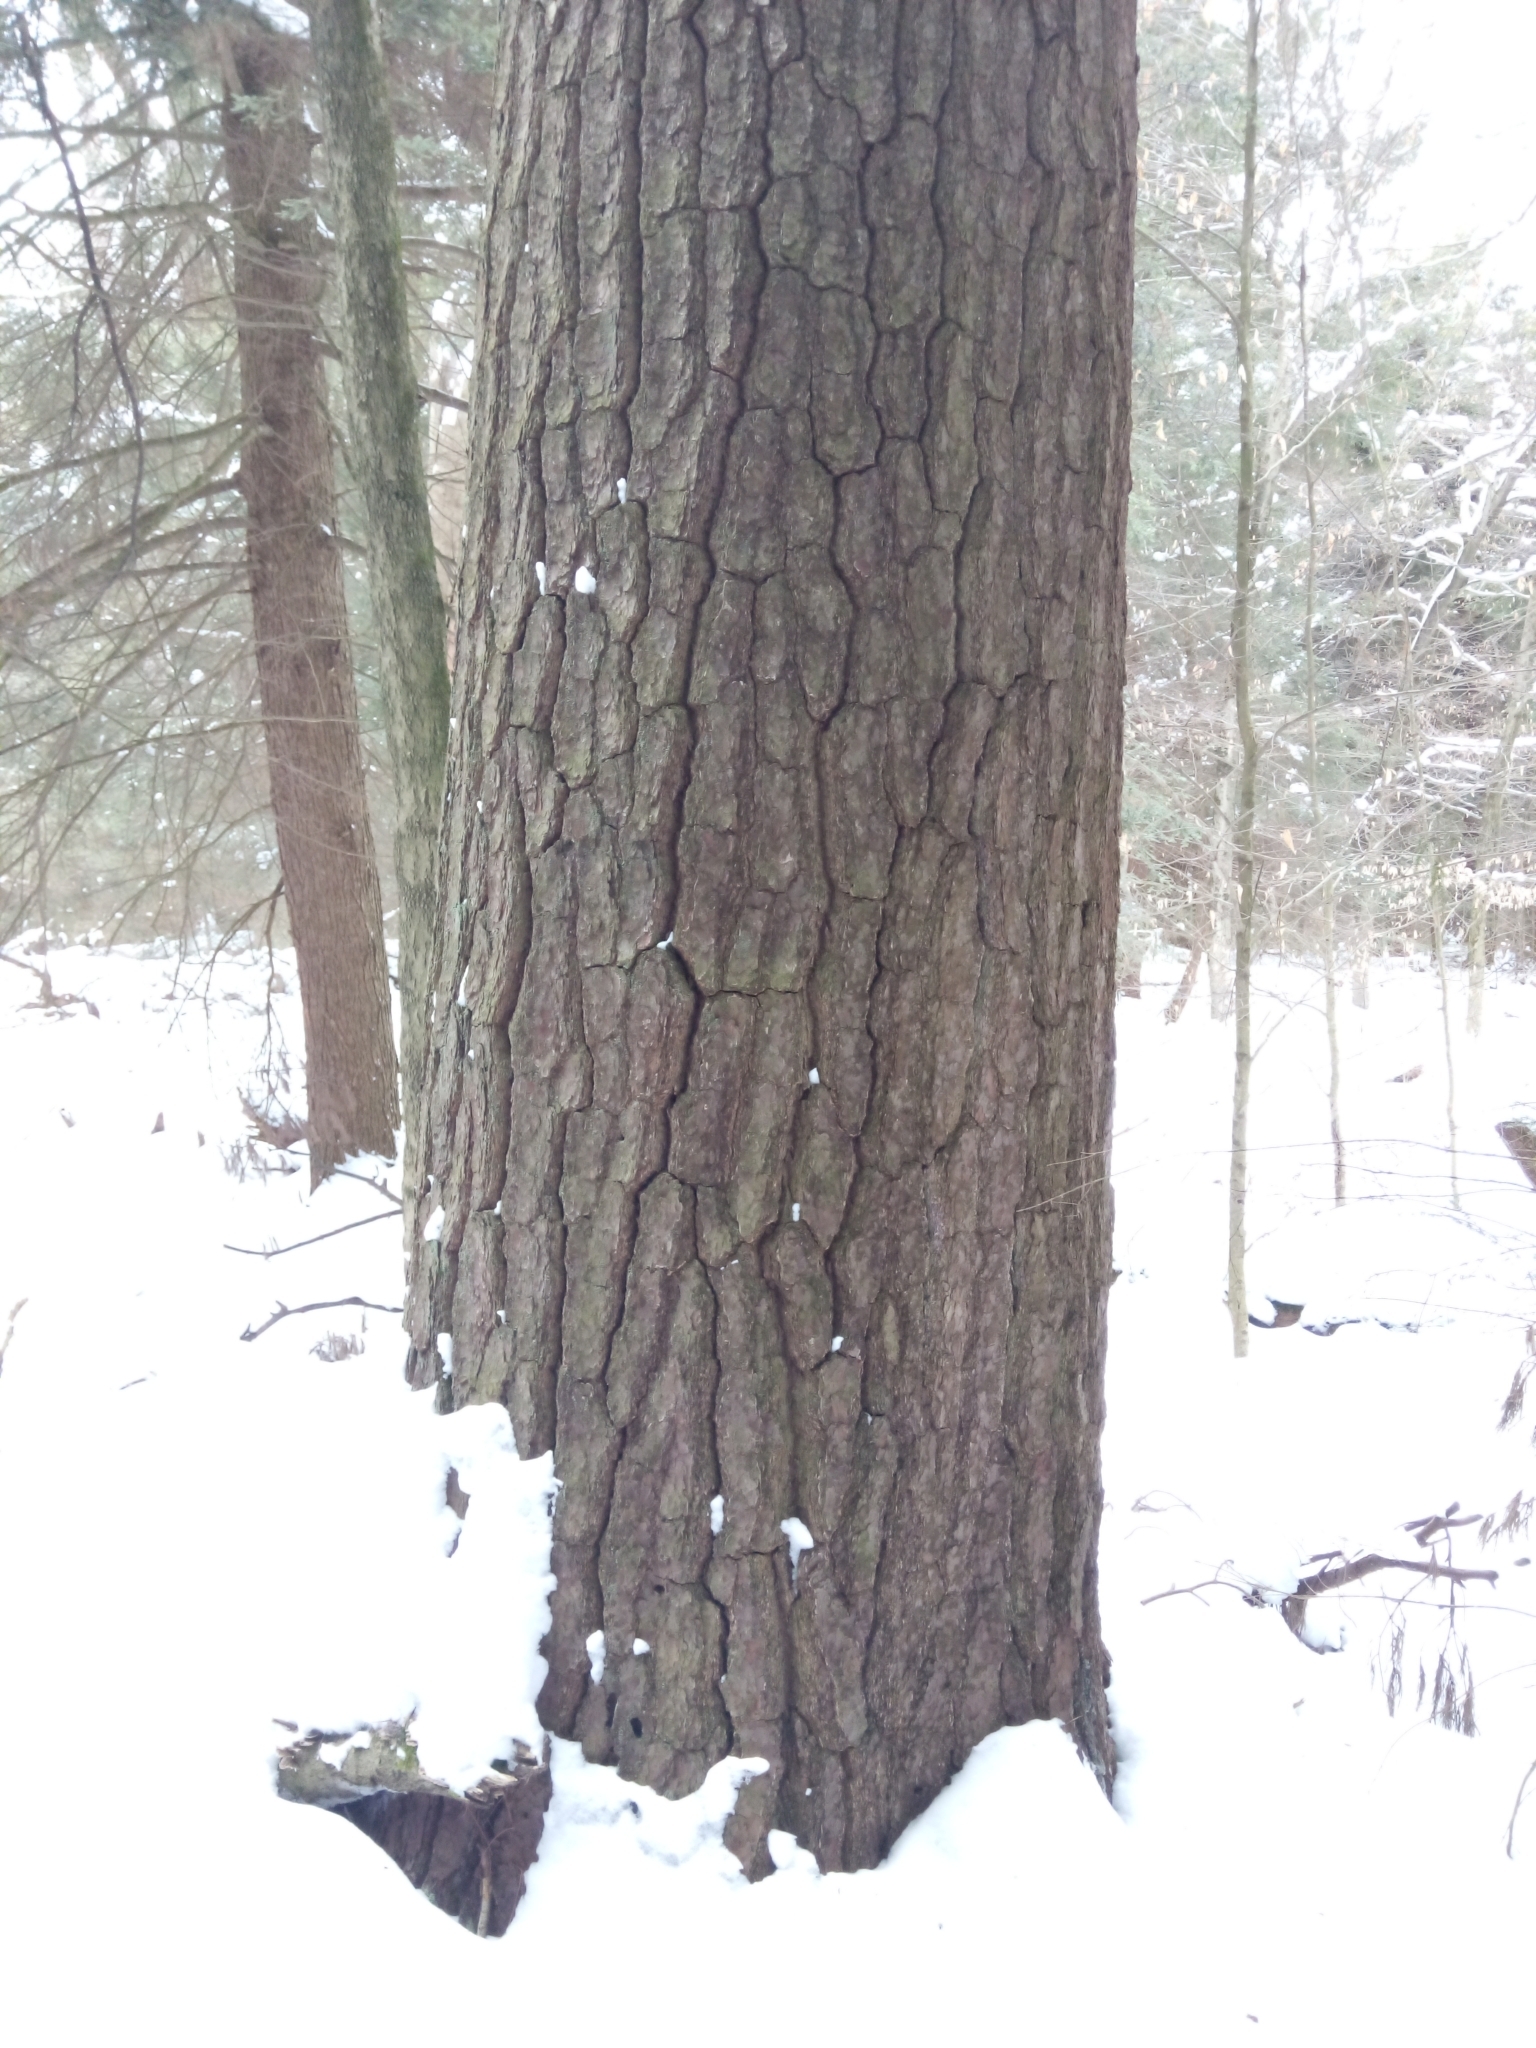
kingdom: Plantae
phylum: Tracheophyta
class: Pinopsida
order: Pinales
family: Pinaceae
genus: Pinus
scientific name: Pinus strobus
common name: Weymouth pine
